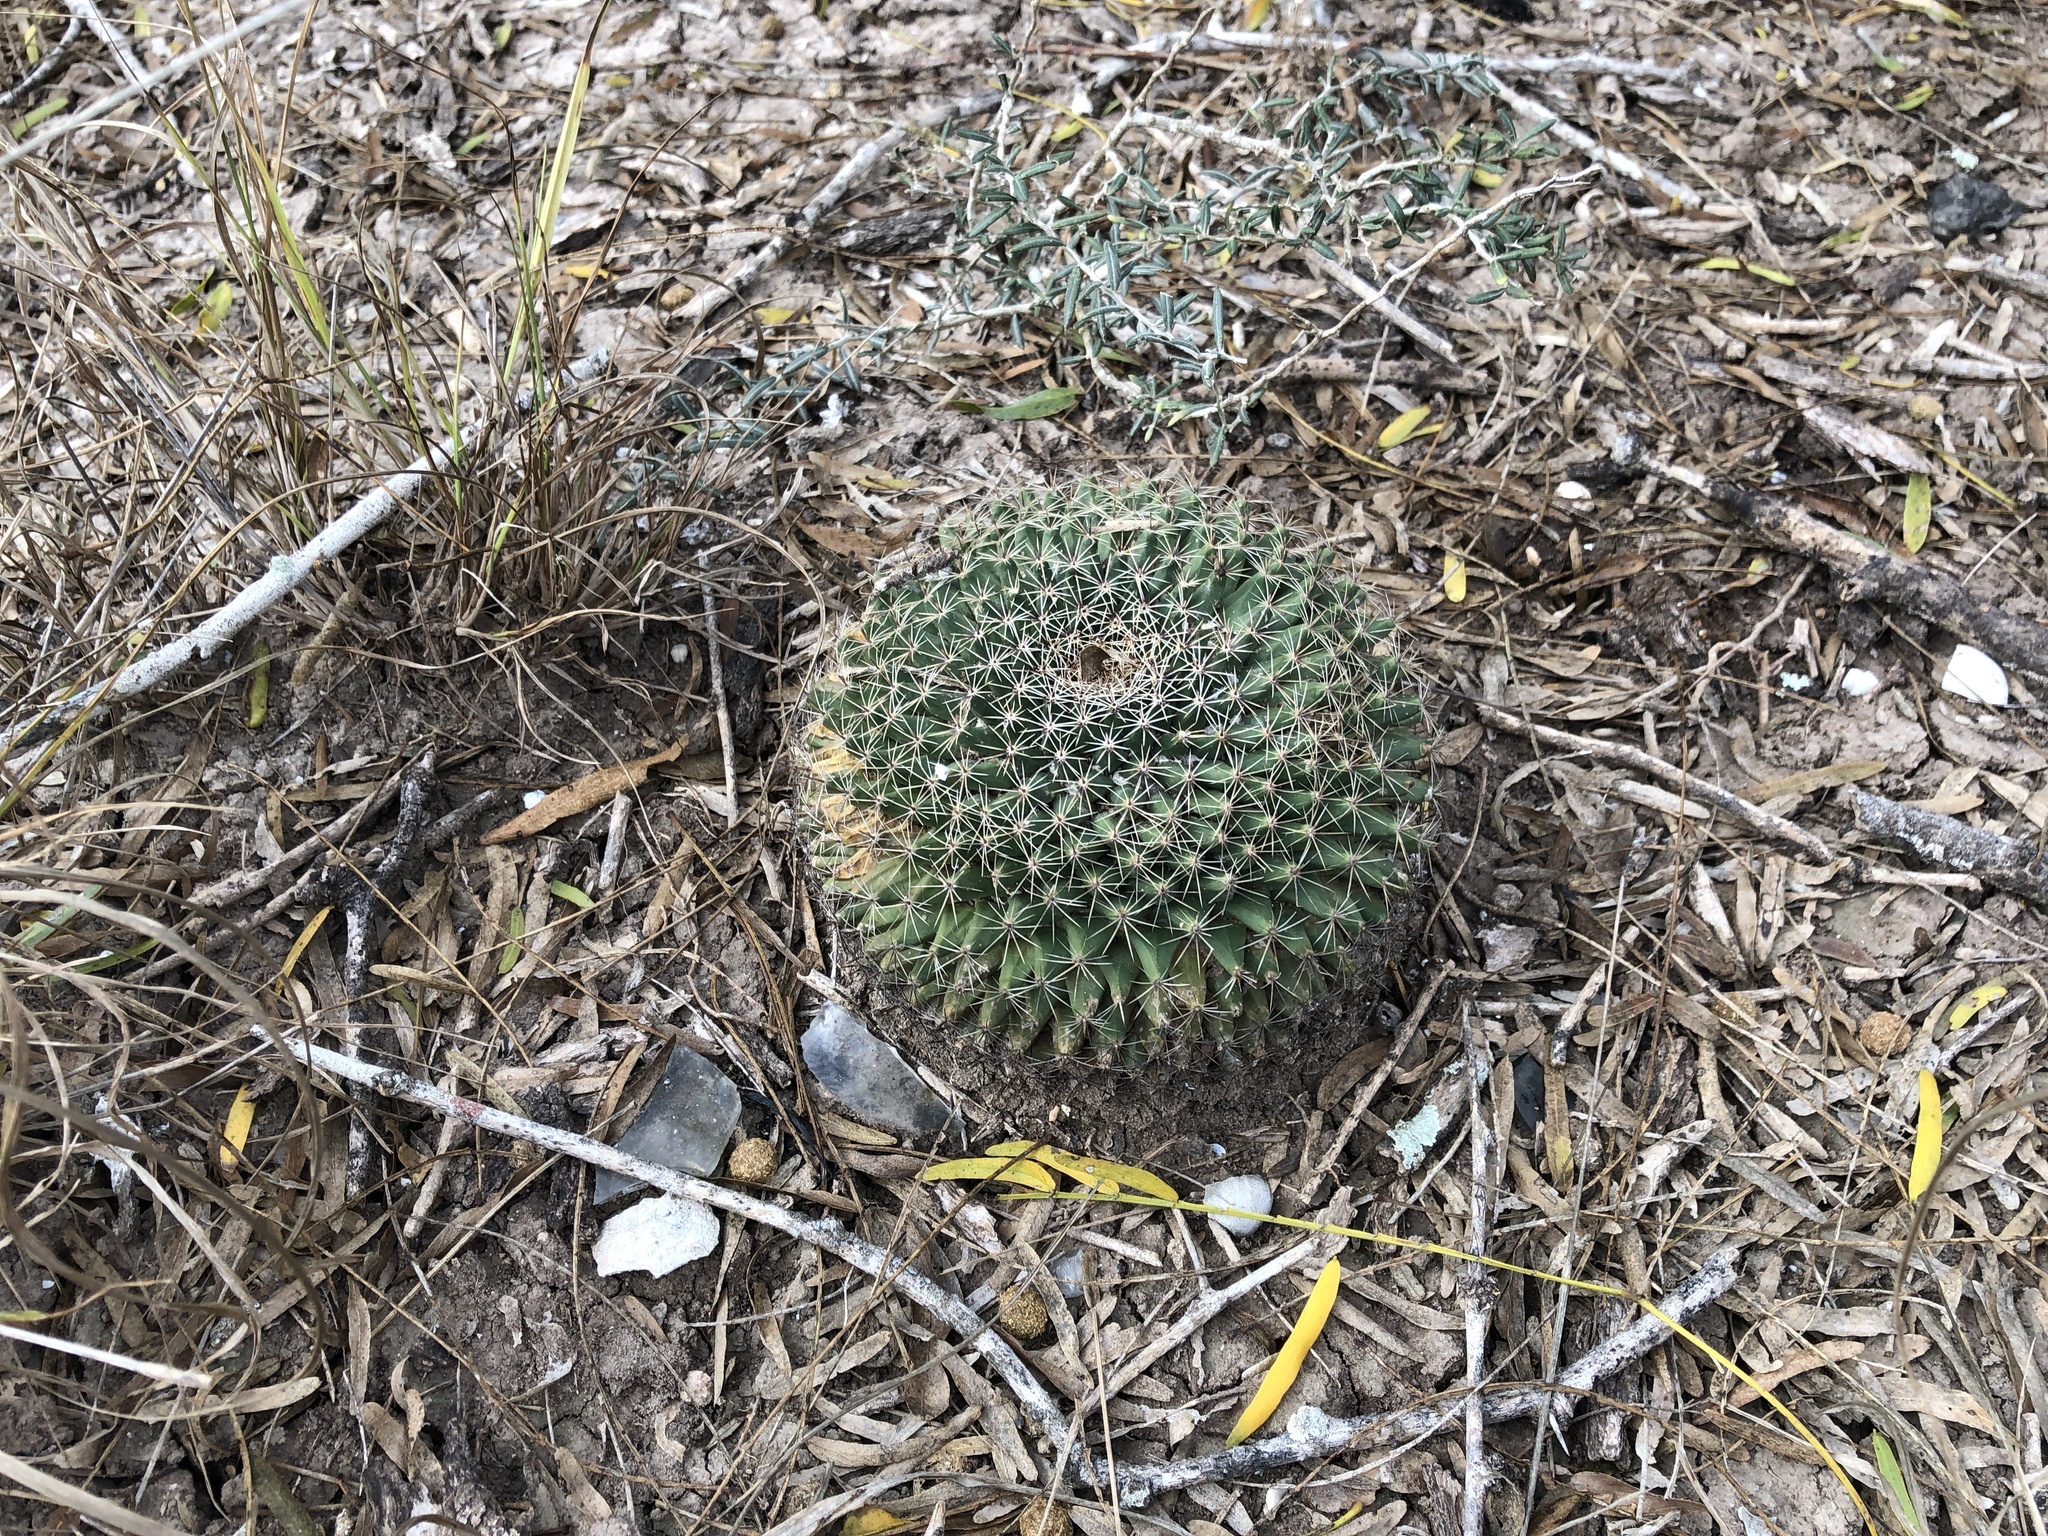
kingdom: Plantae
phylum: Tracheophyta
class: Magnoliopsida
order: Caryophyllales
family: Cactaceae
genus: Mammillaria
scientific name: Mammillaria heyderi
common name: Little nipple cactus
